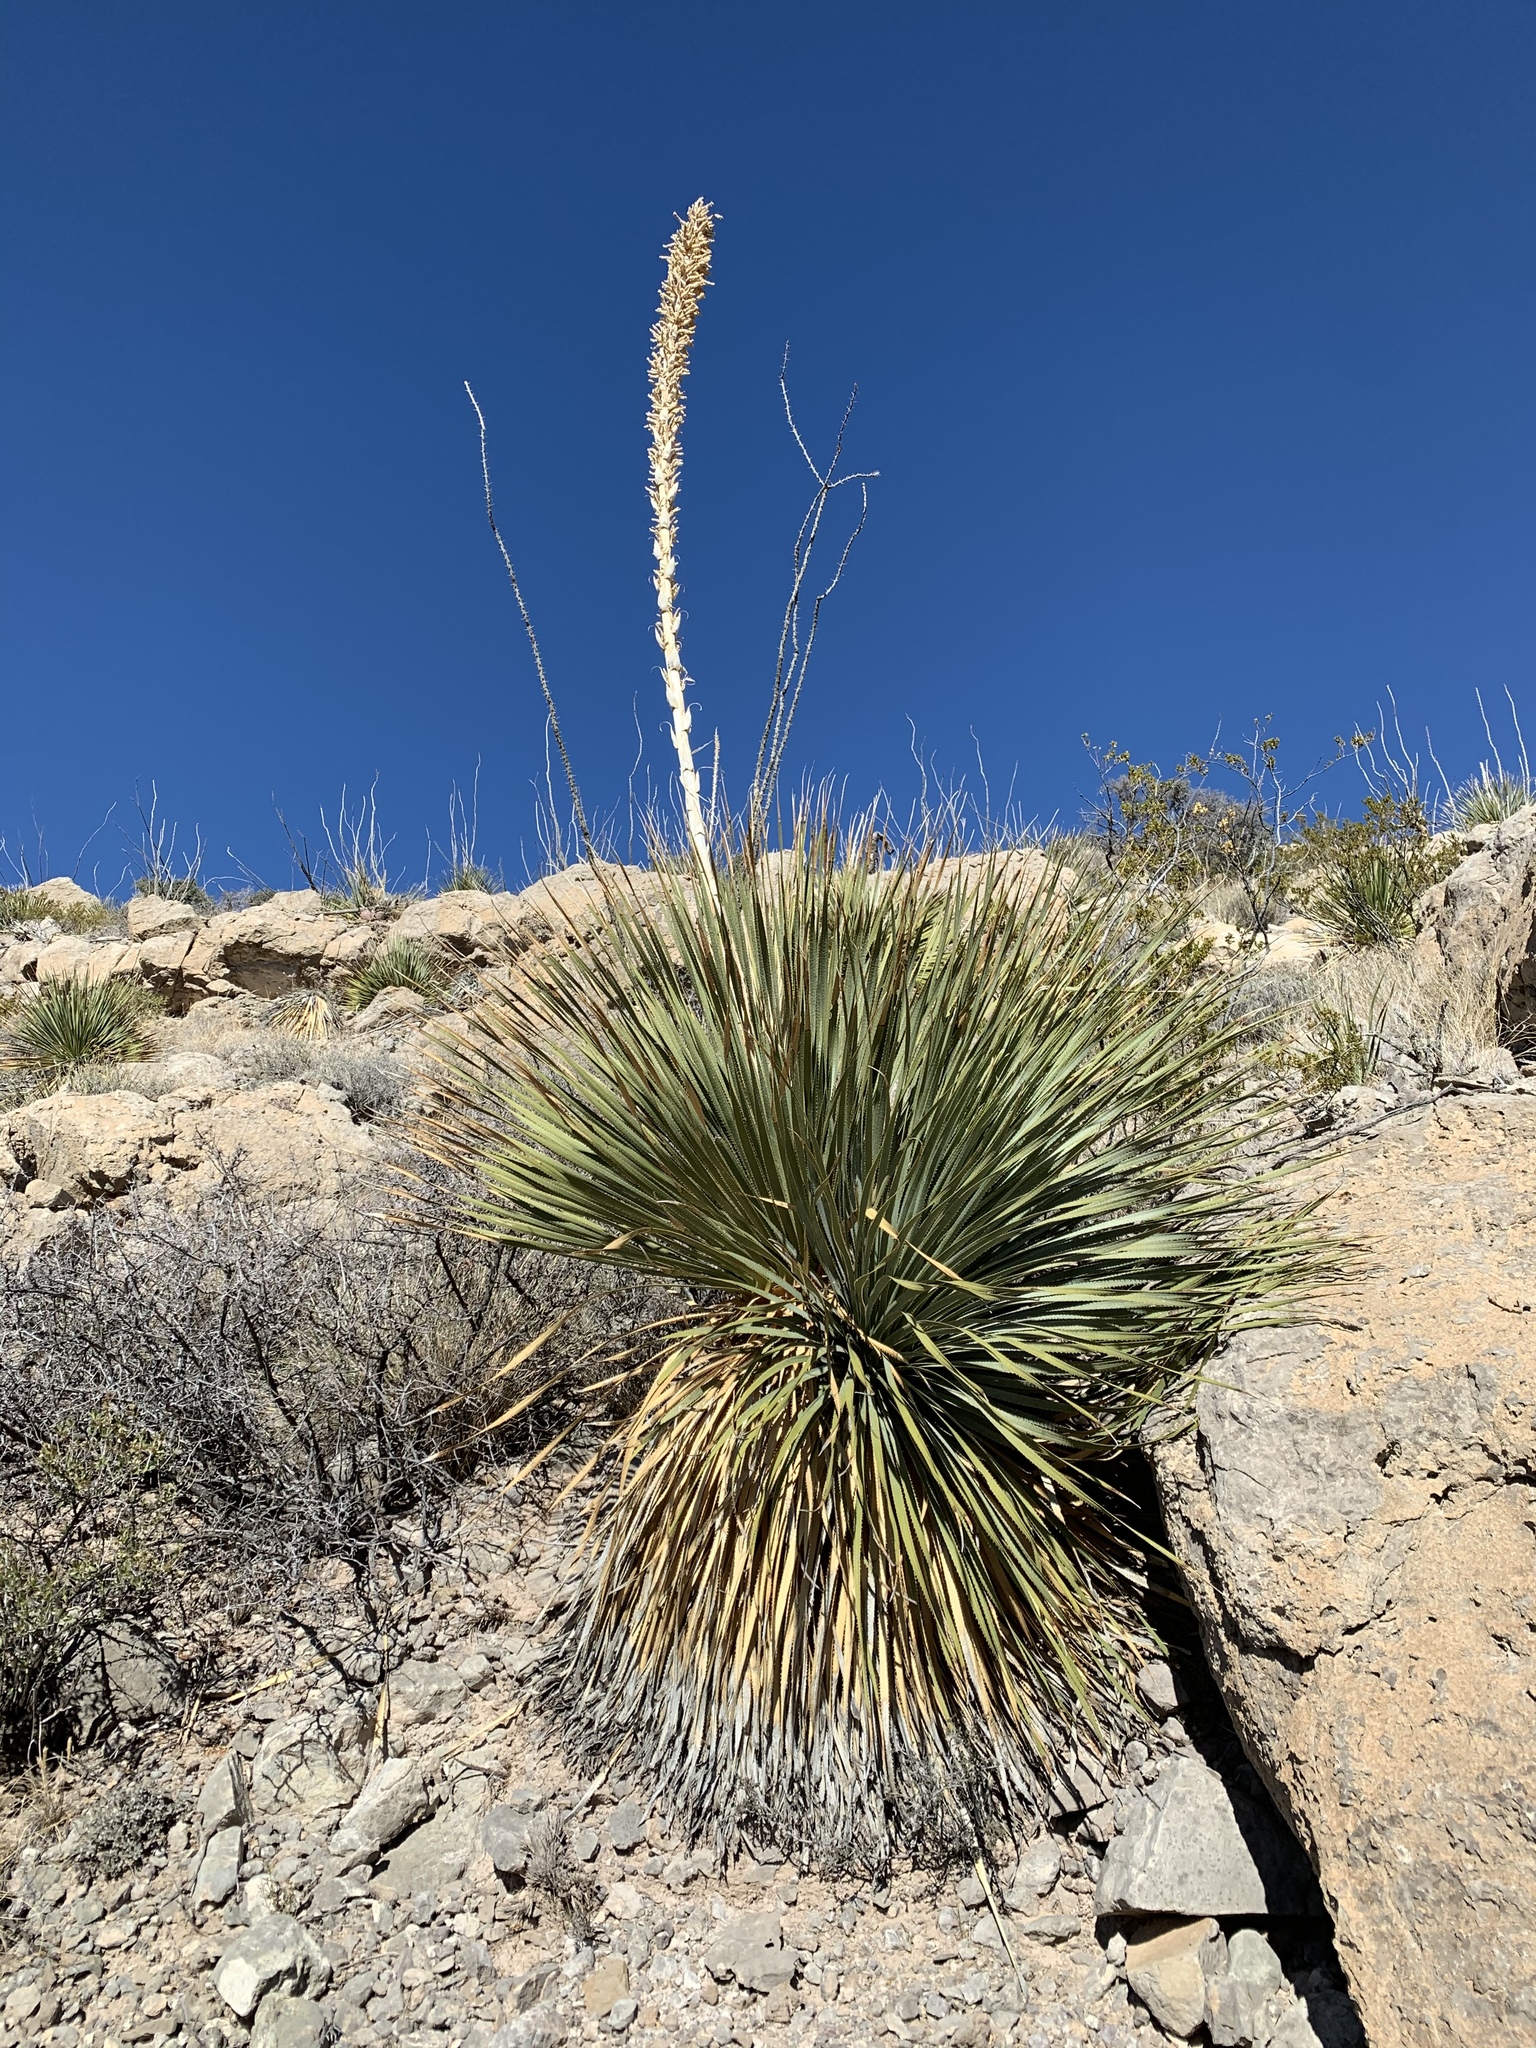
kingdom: Plantae
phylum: Tracheophyta
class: Liliopsida
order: Asparagales
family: Asparagaceae
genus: Dasylirion
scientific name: Dasylirion wheeleri
